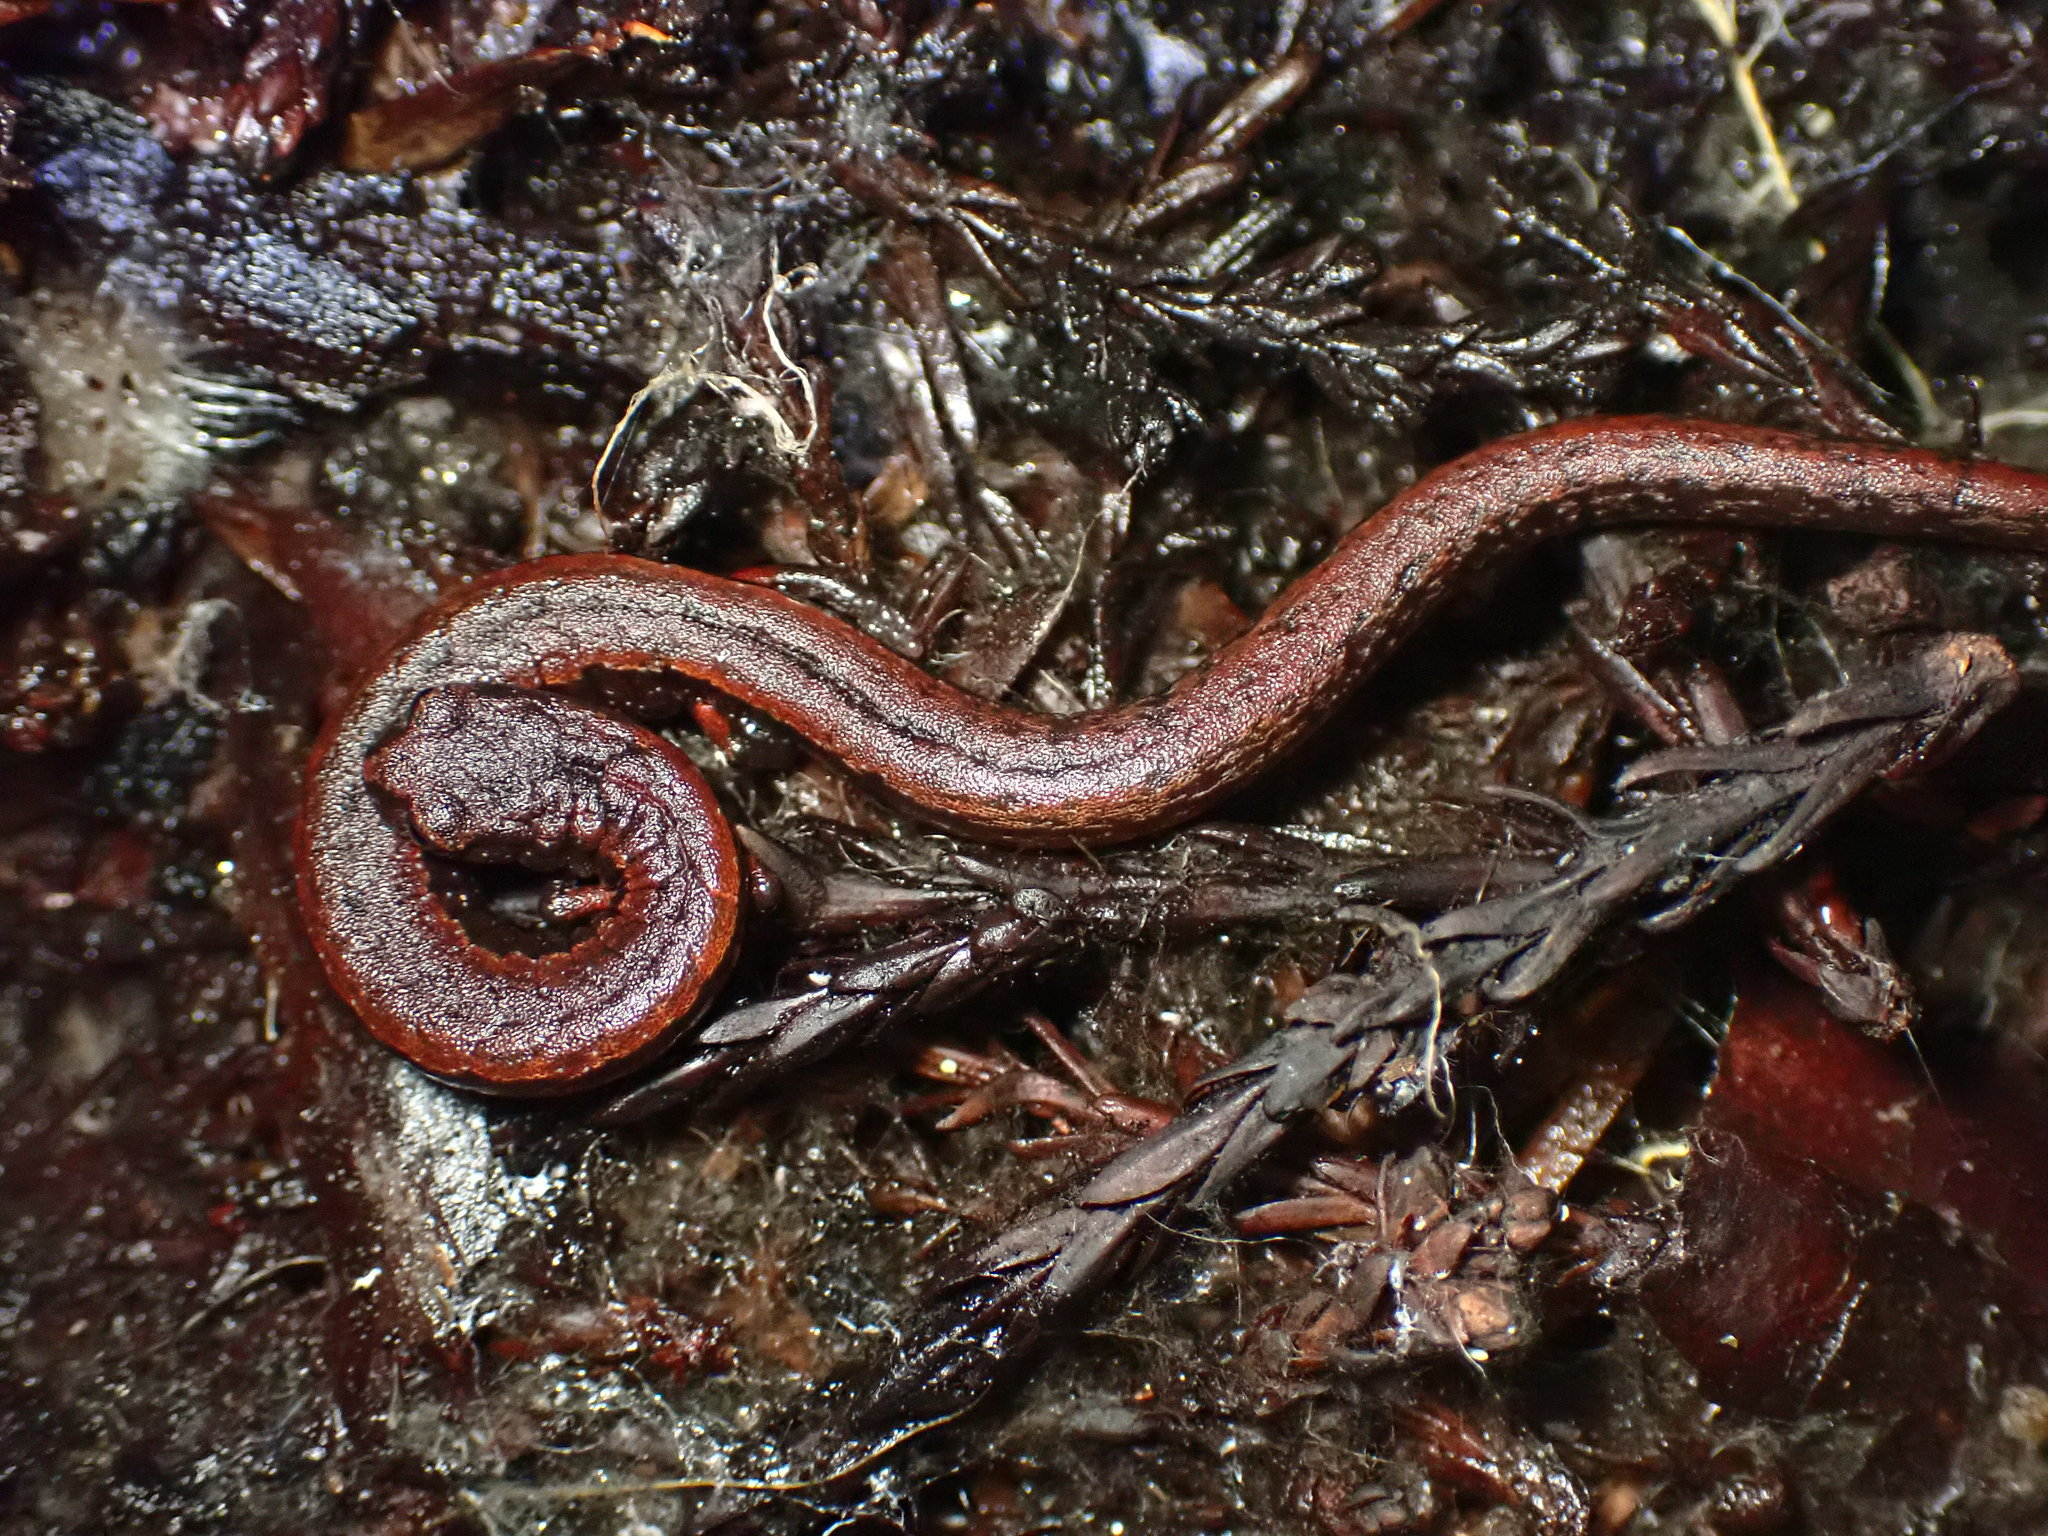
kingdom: Animalia
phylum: Chordata
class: Amphibia
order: Caudata
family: Plethodontidae
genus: Batrachoseps
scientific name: Batrachoseps attenuatus
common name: California slender salamander
